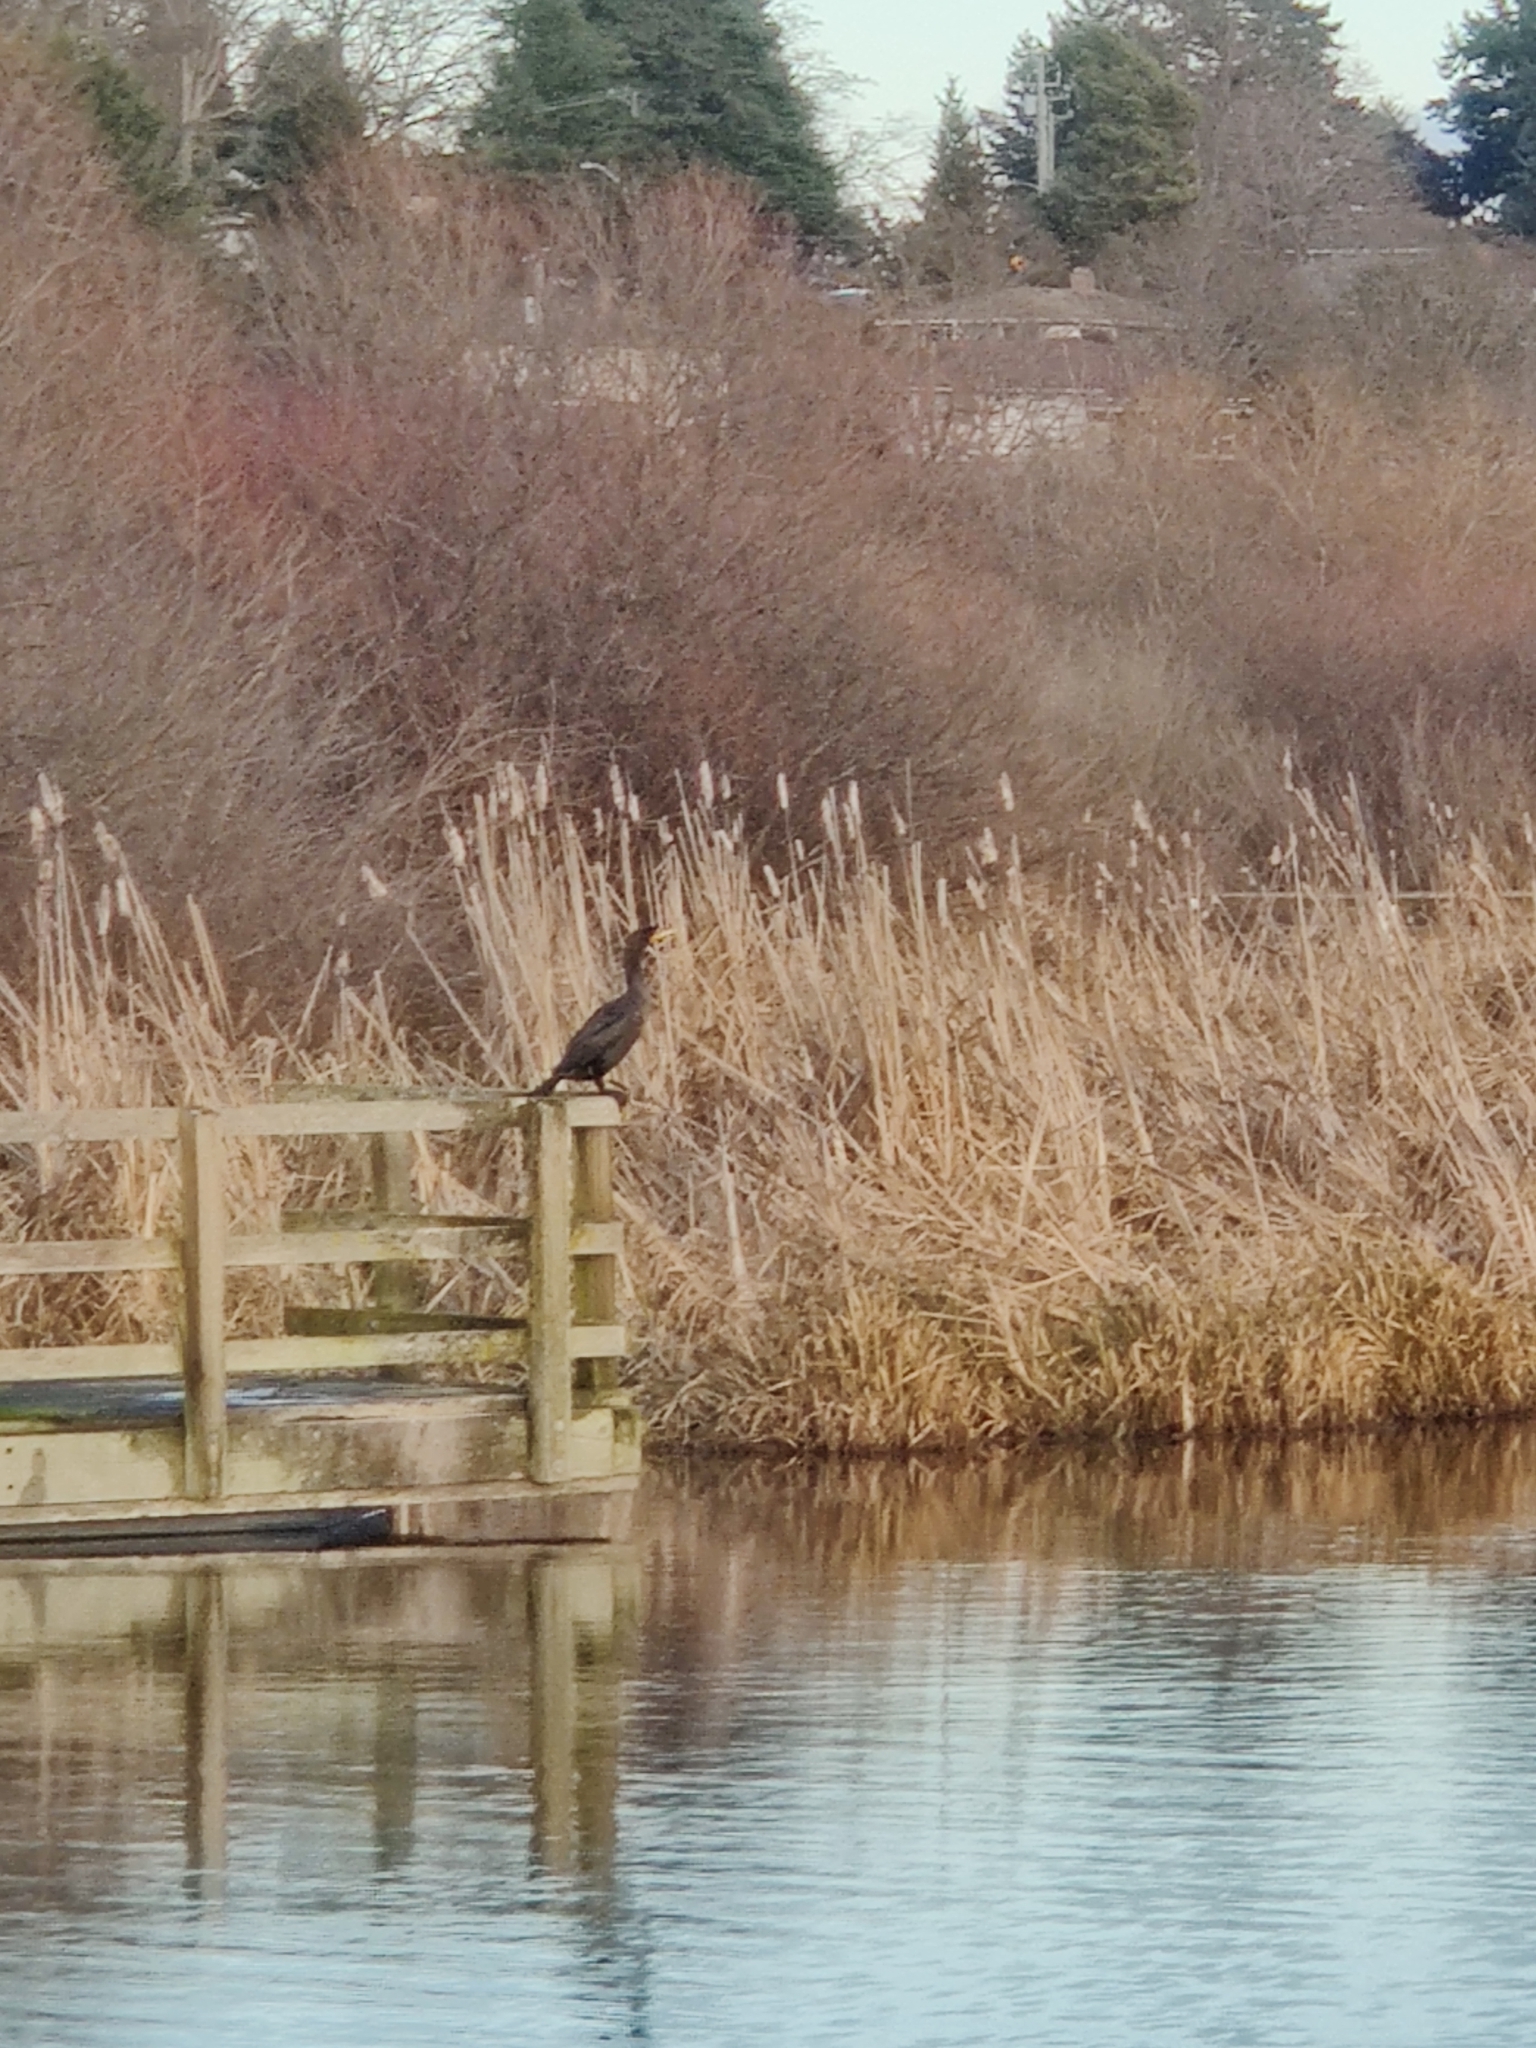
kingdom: Animalia
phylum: Chordata
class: Aves
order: Suliformes
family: Phalacrocoracidae
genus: Phalacrocorax
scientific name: Phalacrocorax auritus
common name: Double-crested cormorant
